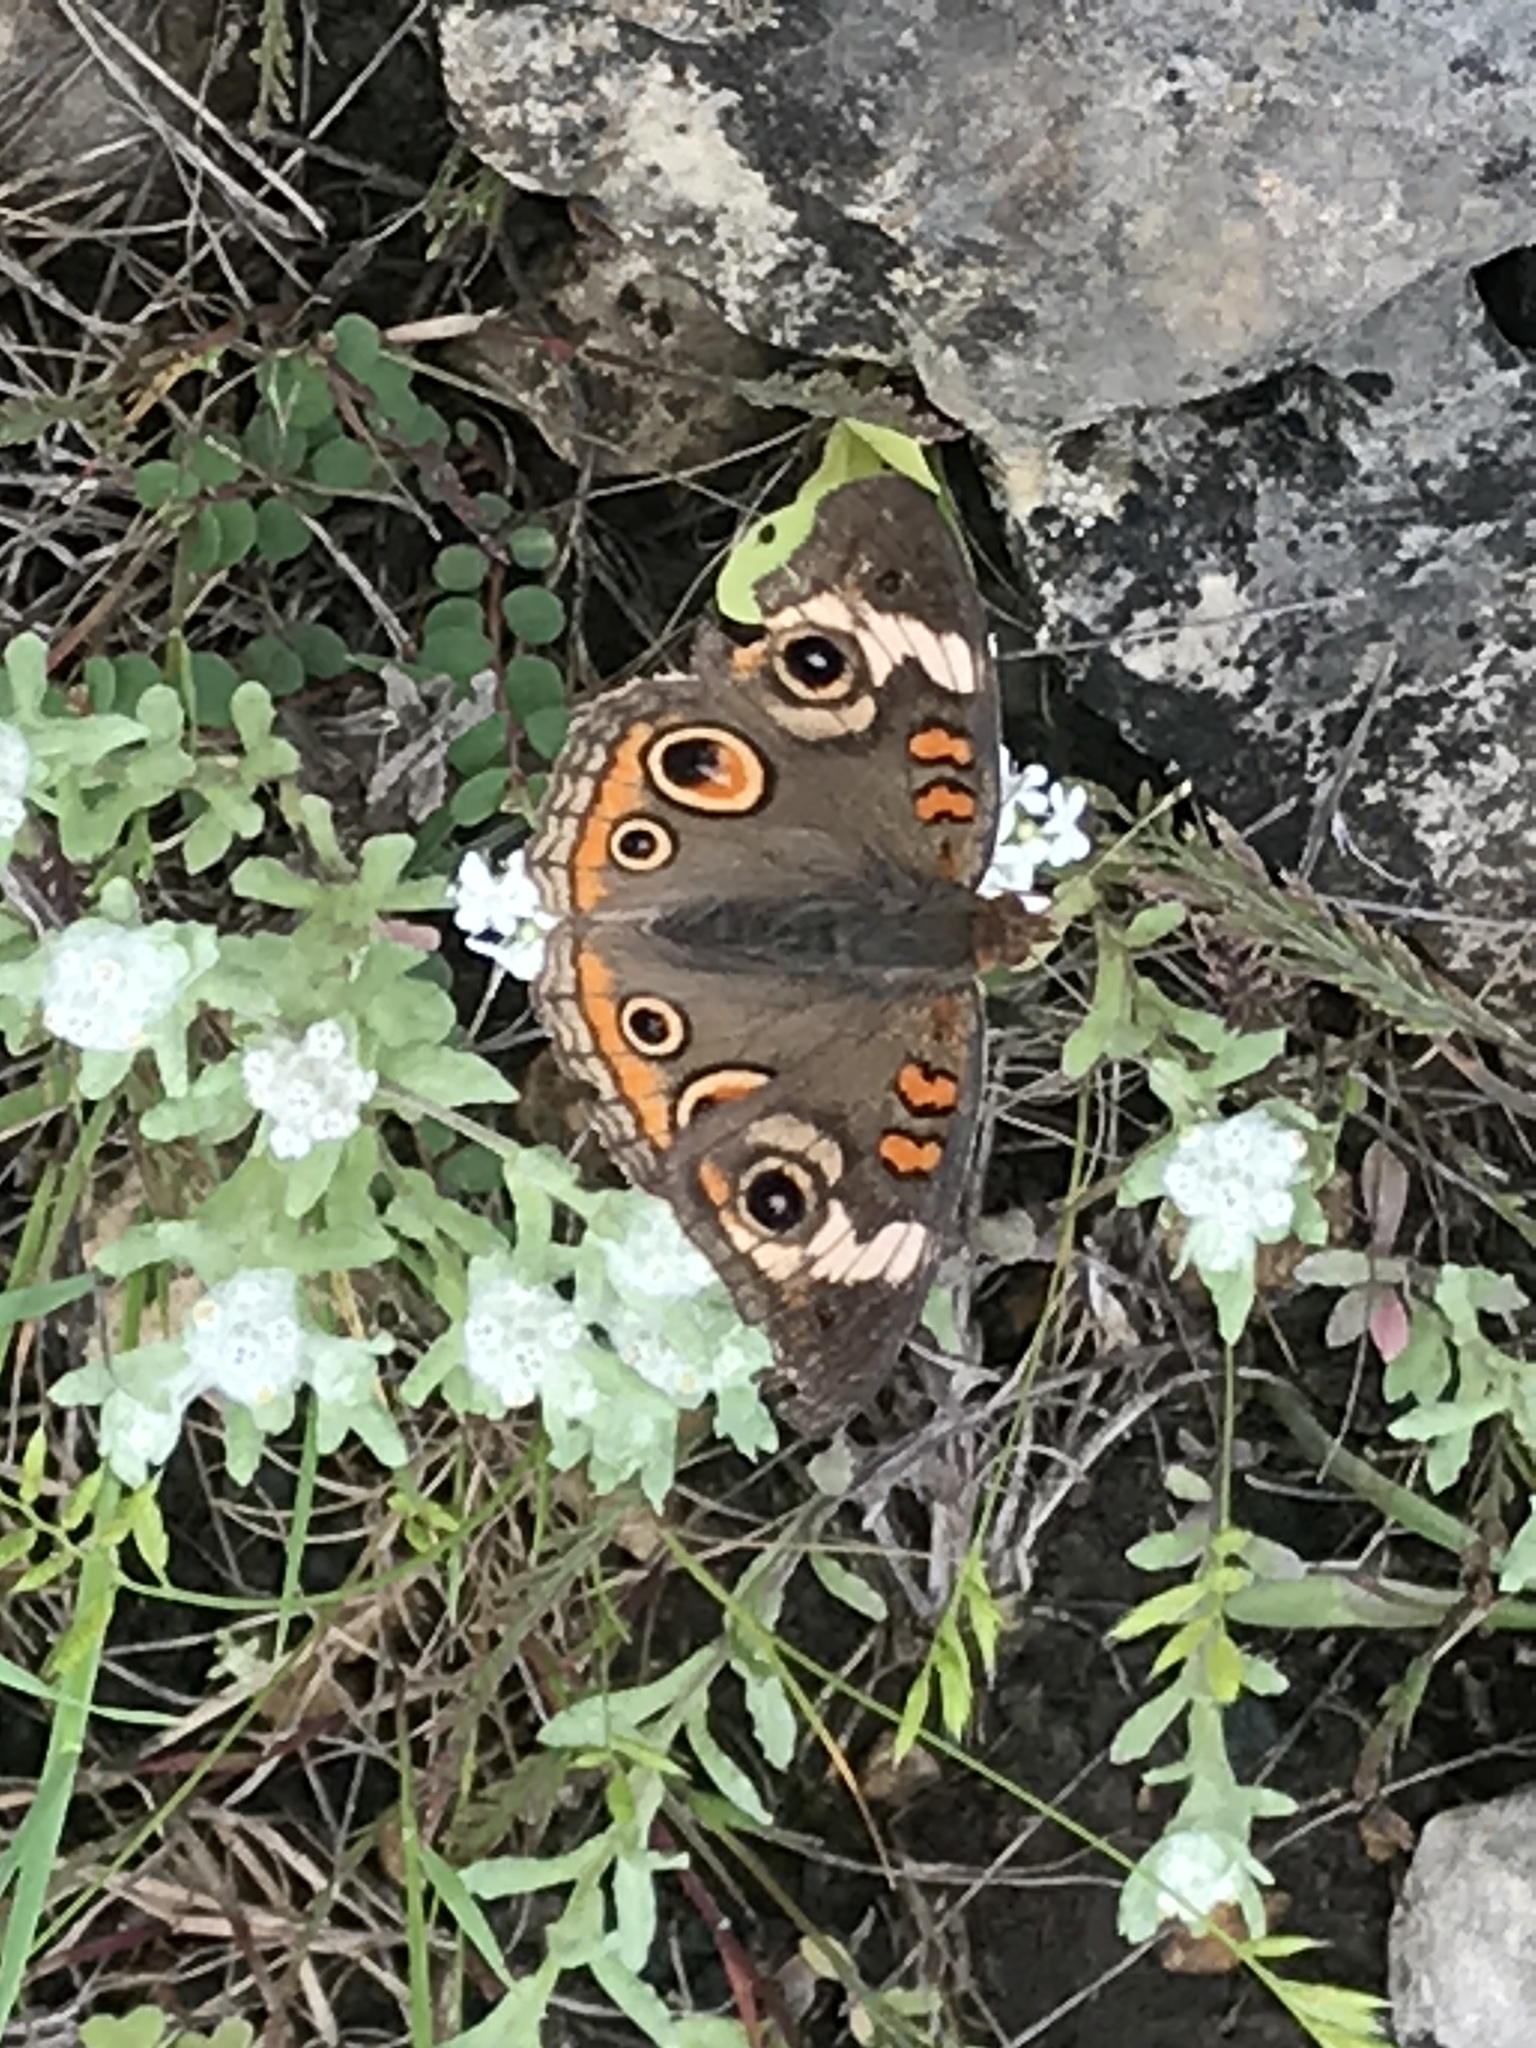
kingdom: Animalia
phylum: Arthropoda
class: Insecta
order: Lepidoptera
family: Nymphalidae
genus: Junonia
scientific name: Junonia coenia
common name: Common buckeye
